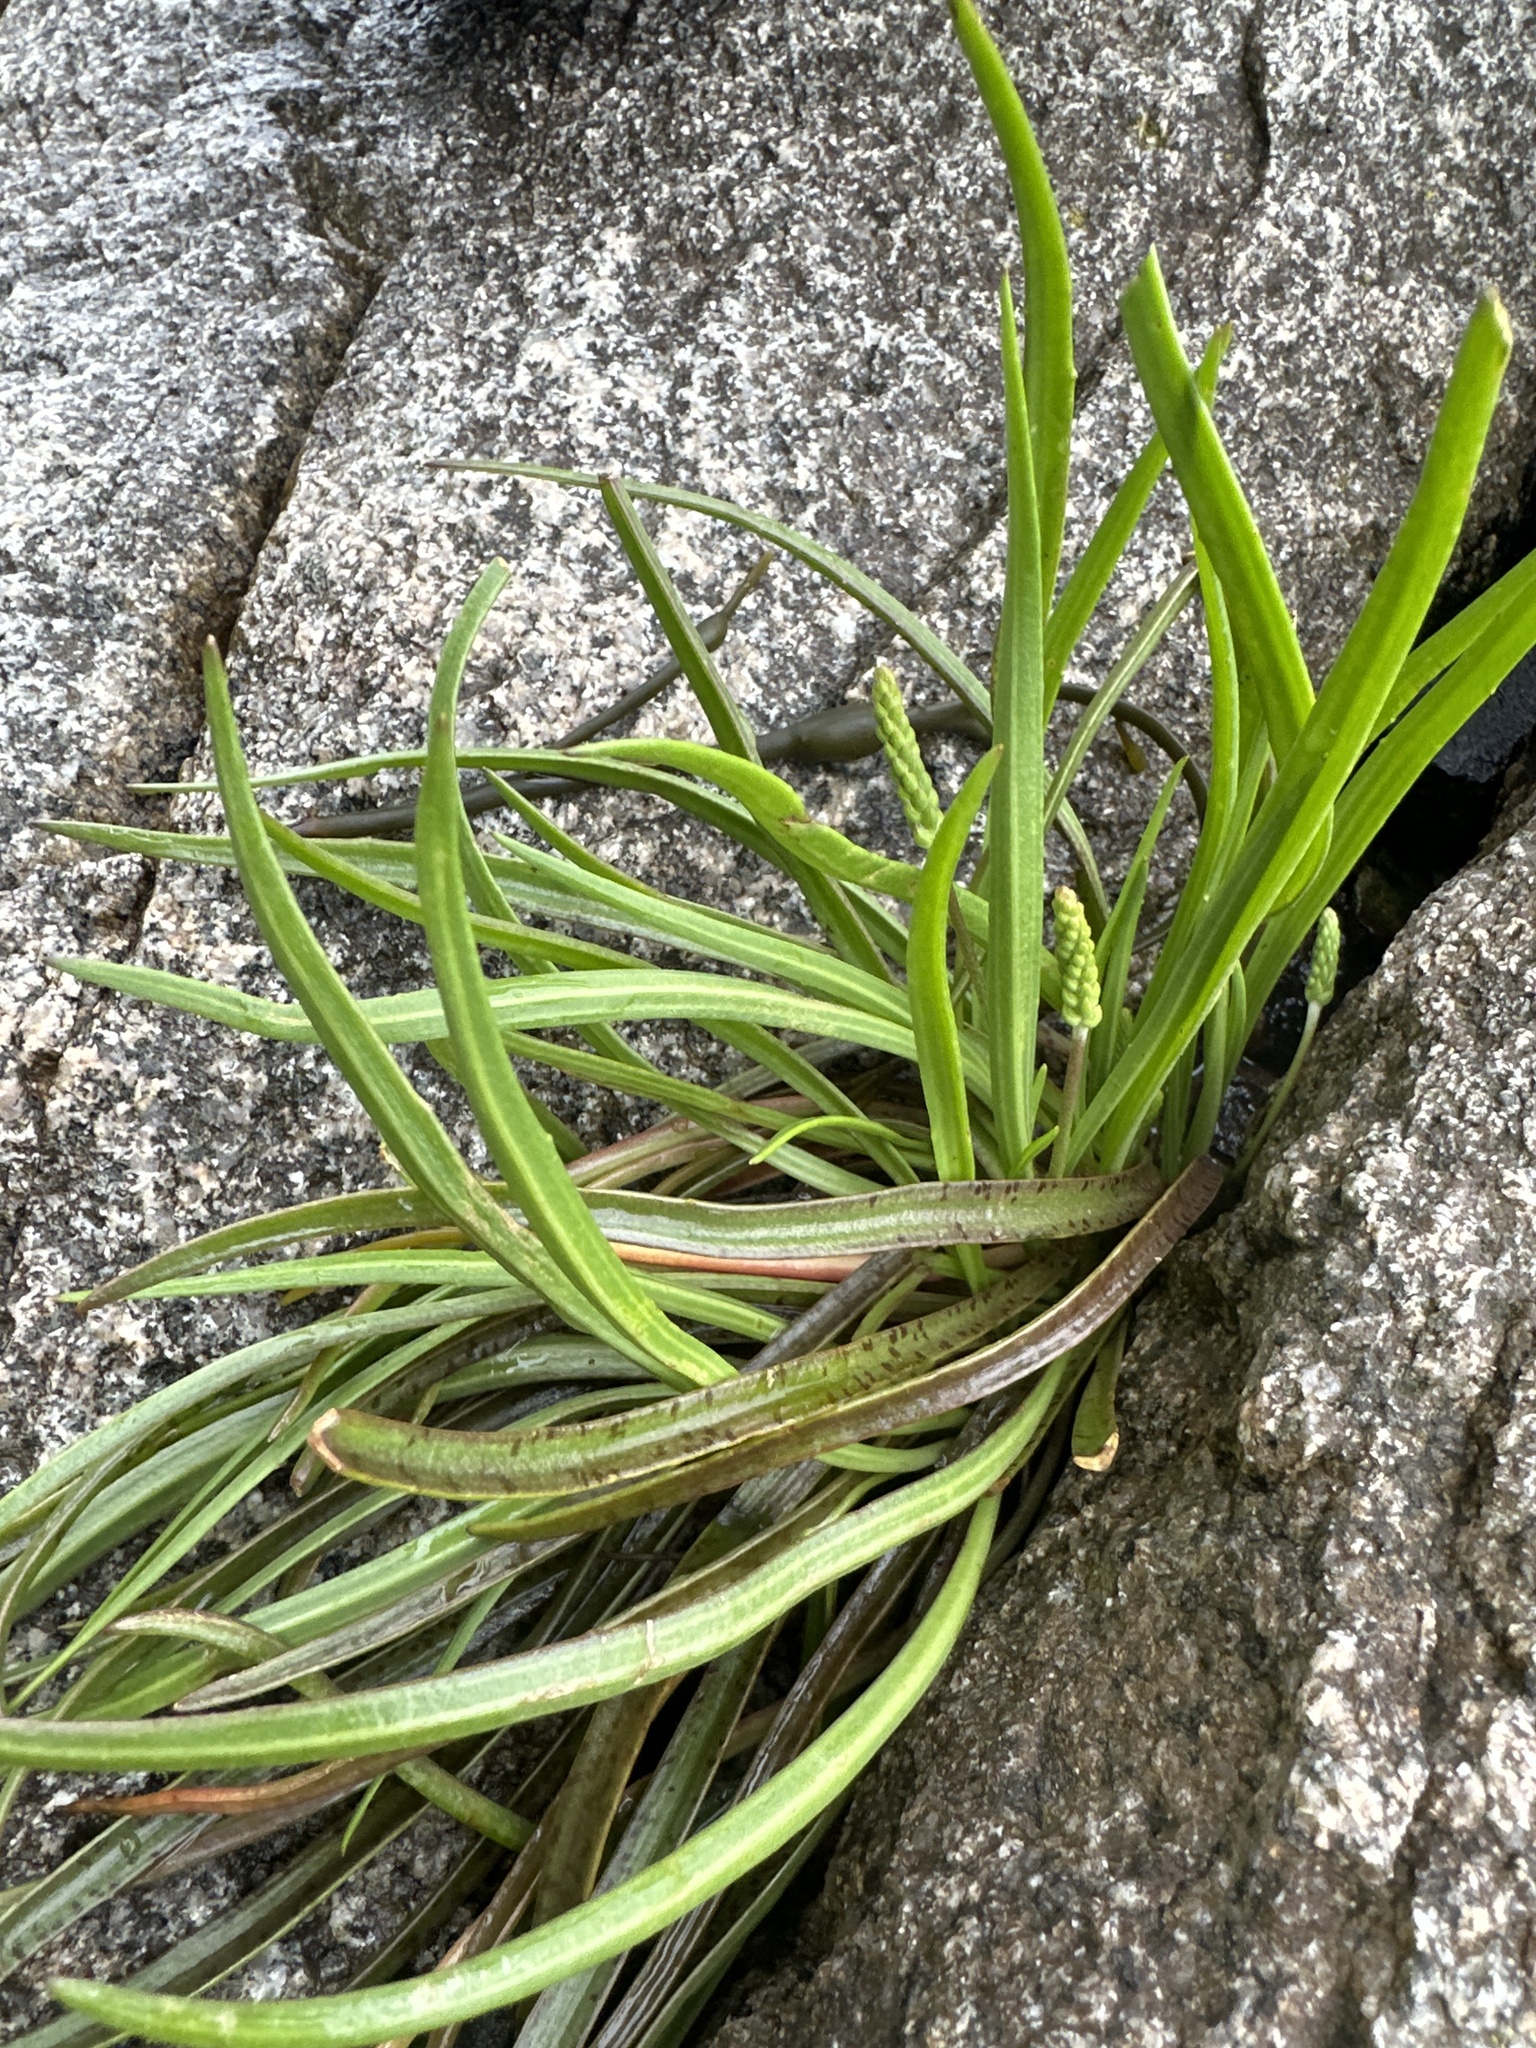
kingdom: Plantae
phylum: Tracheophyta
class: Magnoliopsida
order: Lamiales
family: Plantaginaceae
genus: Plantago
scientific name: Plantago maritima
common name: Sea plantain
